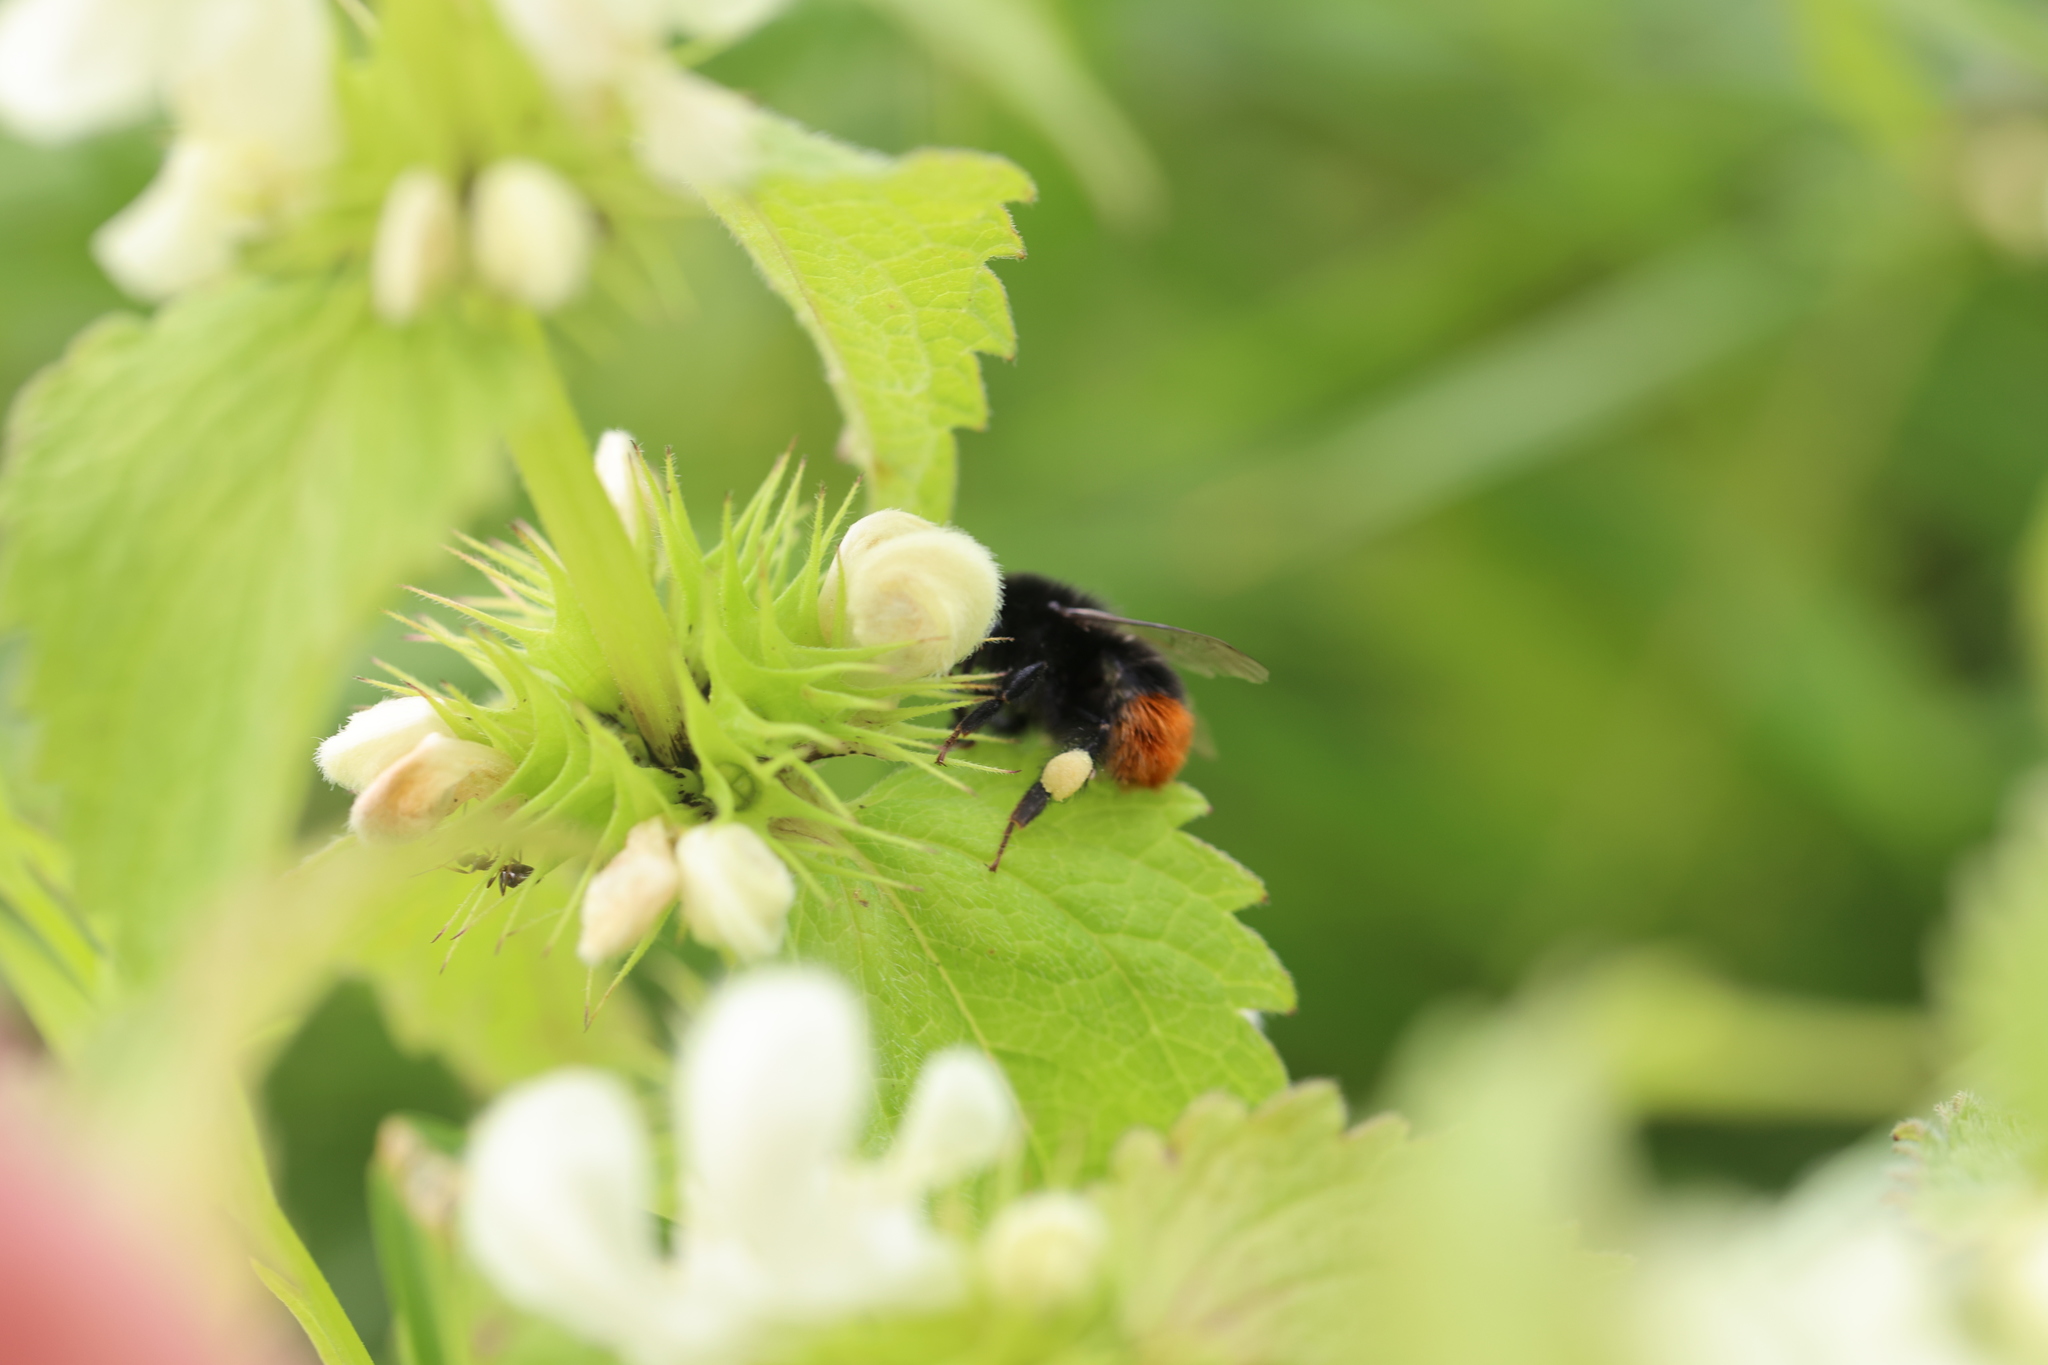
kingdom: Animalia
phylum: Arthropoda
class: Insecta
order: Hymenoptera
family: Apidae
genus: Bombus
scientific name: Bombus lapidarius
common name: Large red-tailed humble-bee
